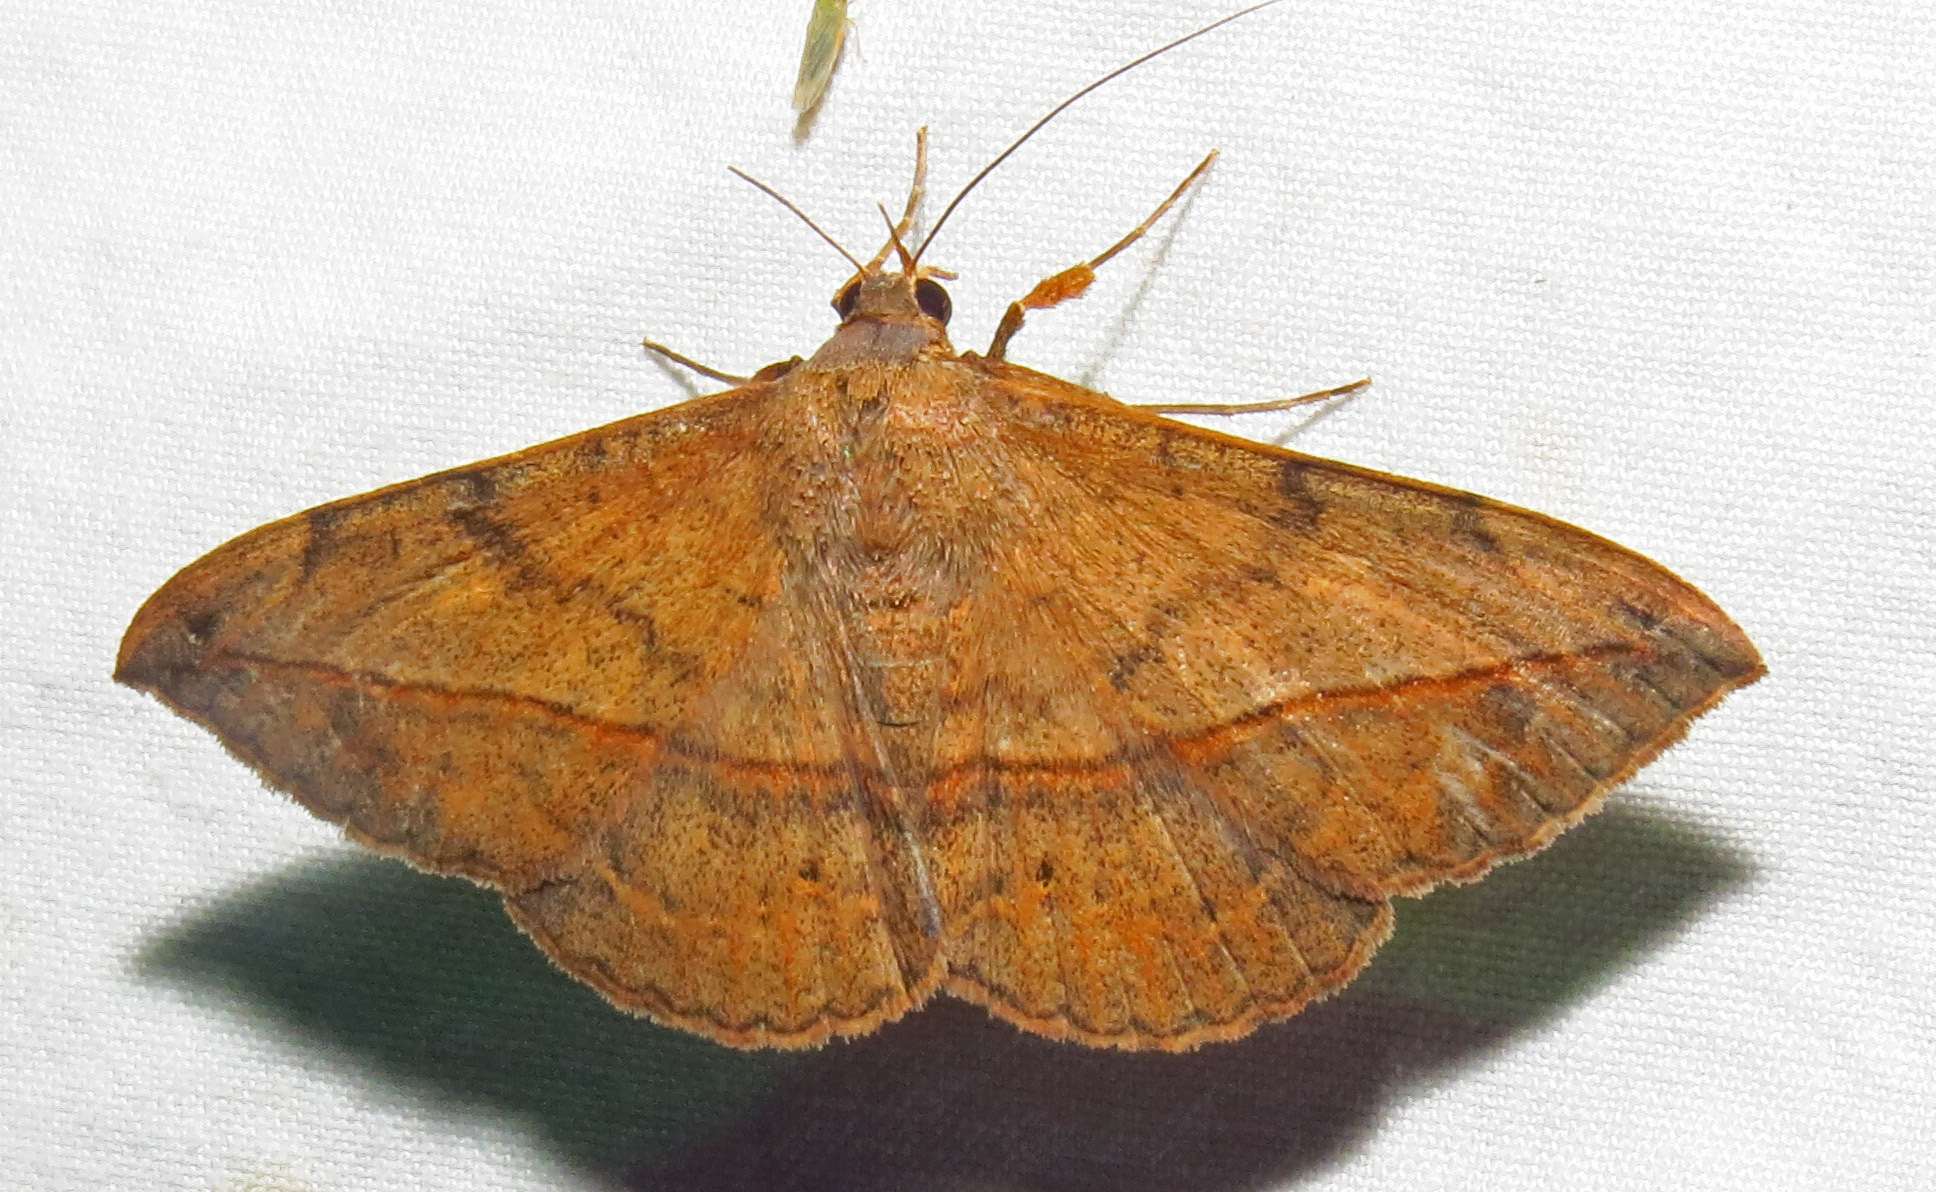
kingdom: Animalia
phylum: Arthropoda
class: Insecta
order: Lepidoptera
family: Erebidae
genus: Anticarsia
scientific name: Anticarsia gemmatalis
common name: Cutworm moth
